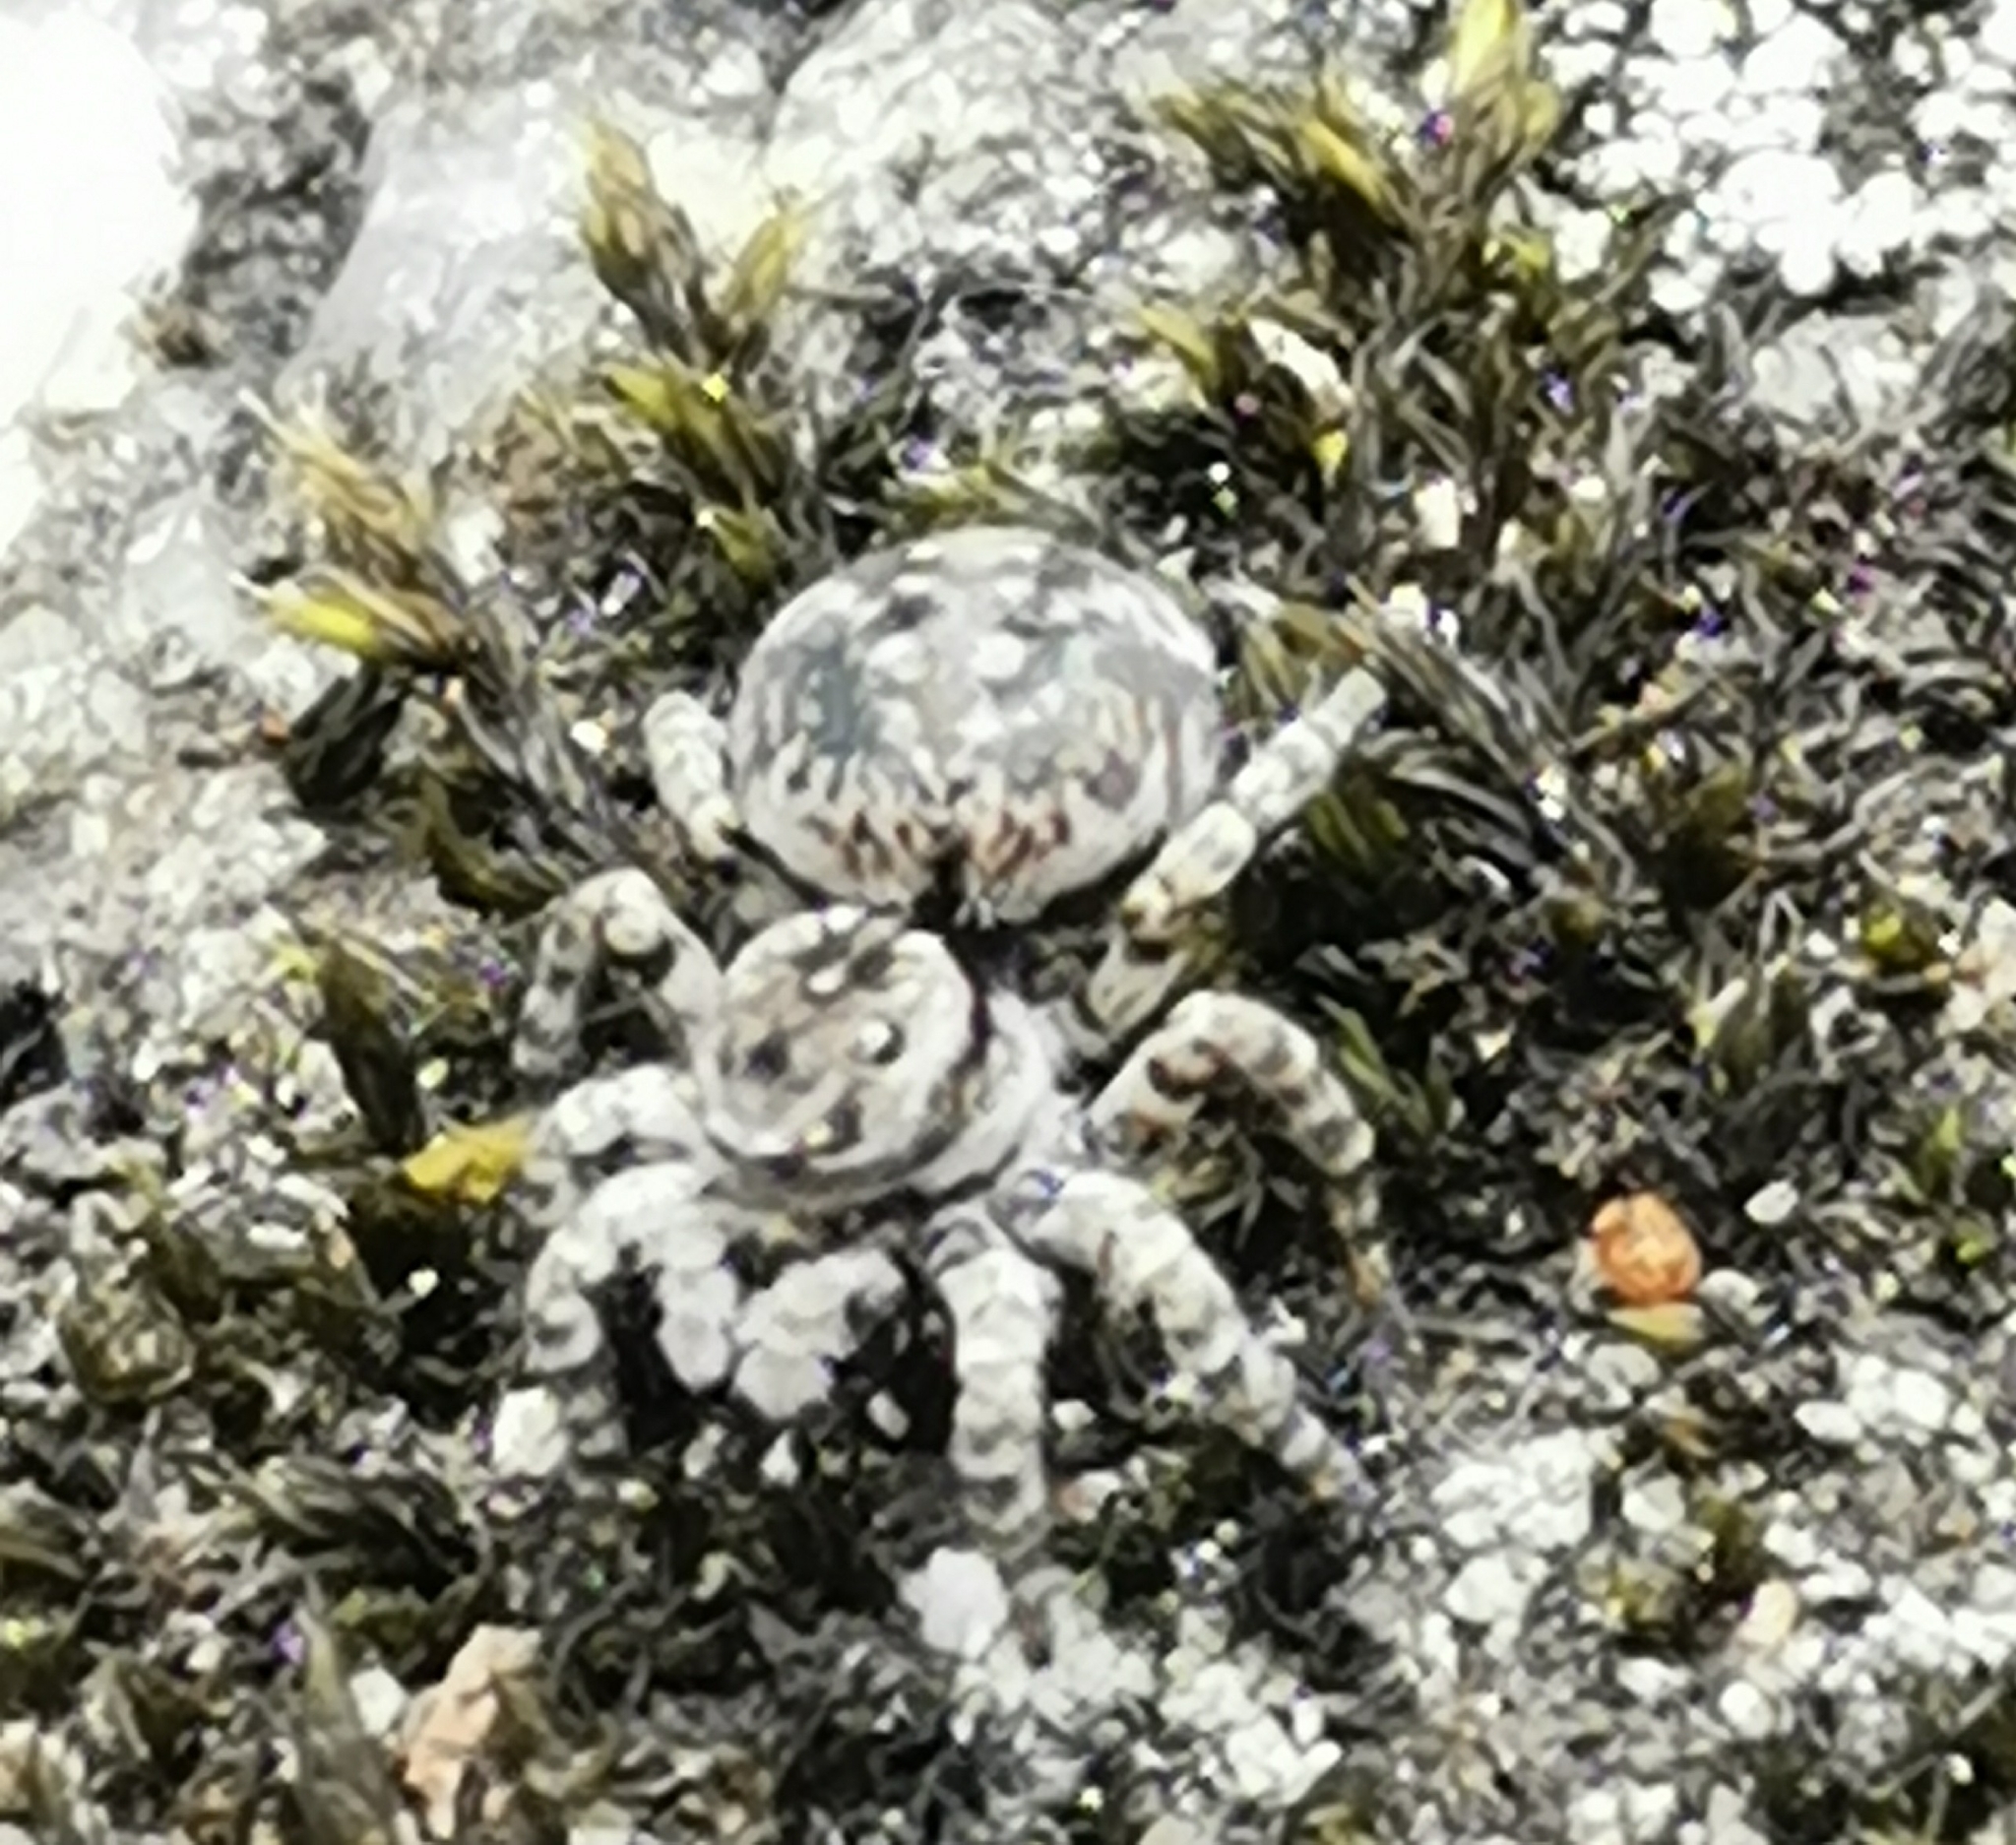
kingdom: Animalia
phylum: Arthropoda
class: Arachnida
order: Araneae
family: Salticidae
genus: Aelurillus
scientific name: Aelurillus v-insignitus
